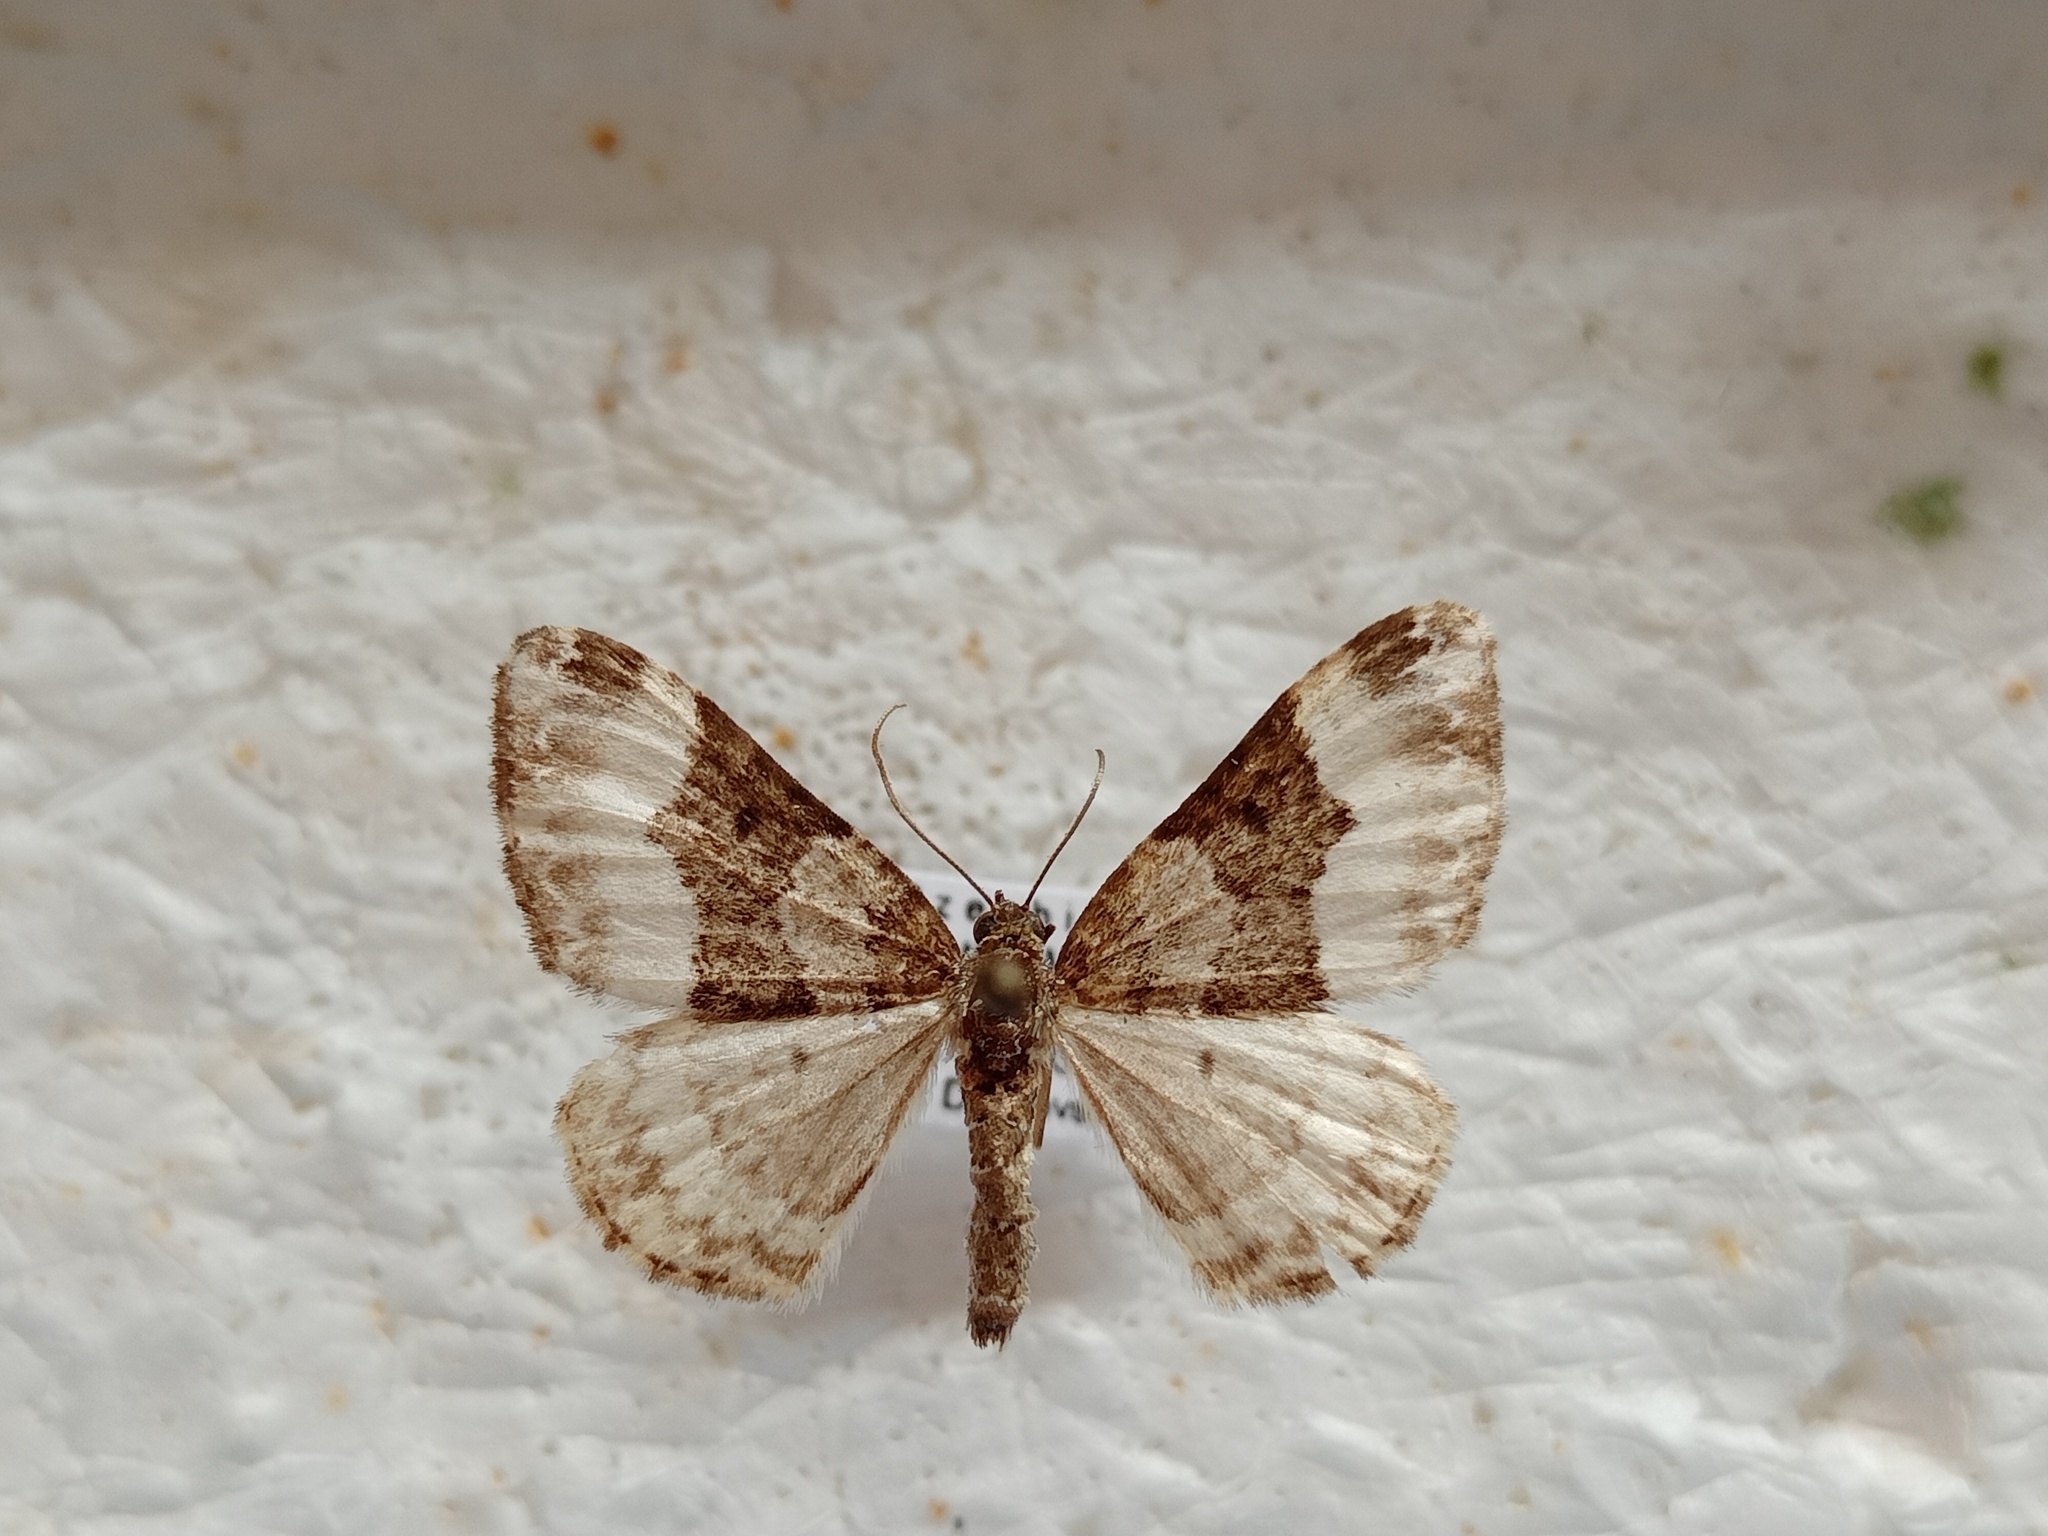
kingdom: Animalia
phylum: Arthropoda
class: Insecta
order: Lepidoptera
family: Geometridae
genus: Euphyia
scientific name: Euphyia unangulata
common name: Sharp-angled carpet
